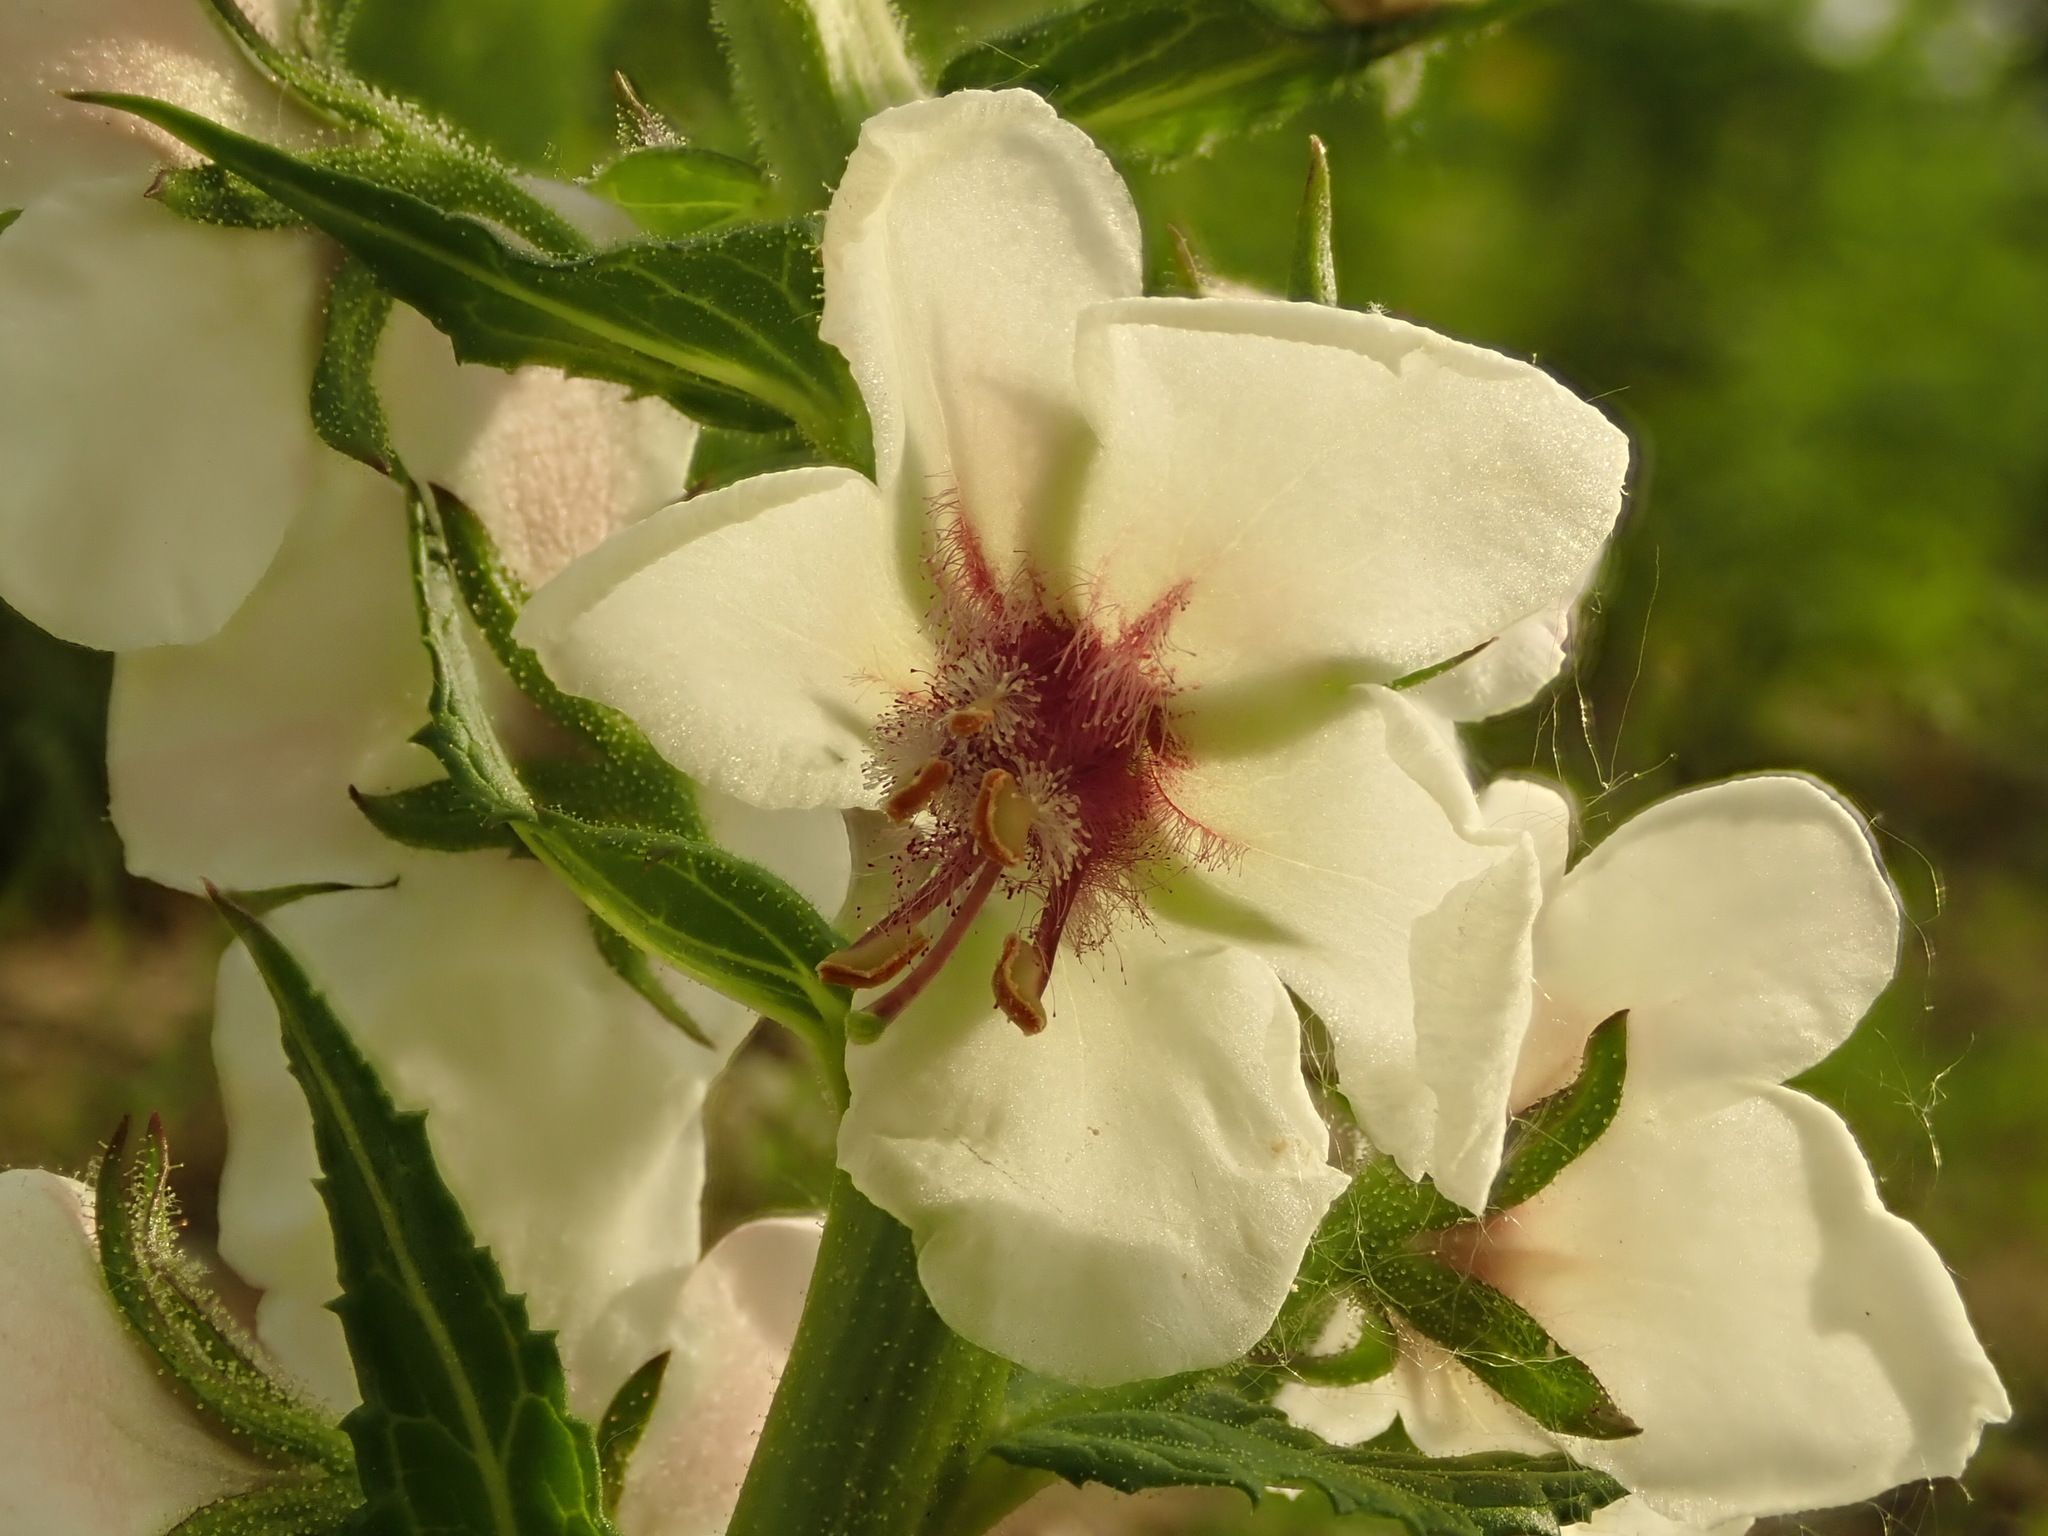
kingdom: Plantae
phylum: Tracheophyta
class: Magnoliopsida
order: Lamiales
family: Scrophulariaceae
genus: Verbascum
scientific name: Verbascum blattaria
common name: Moth mullein
